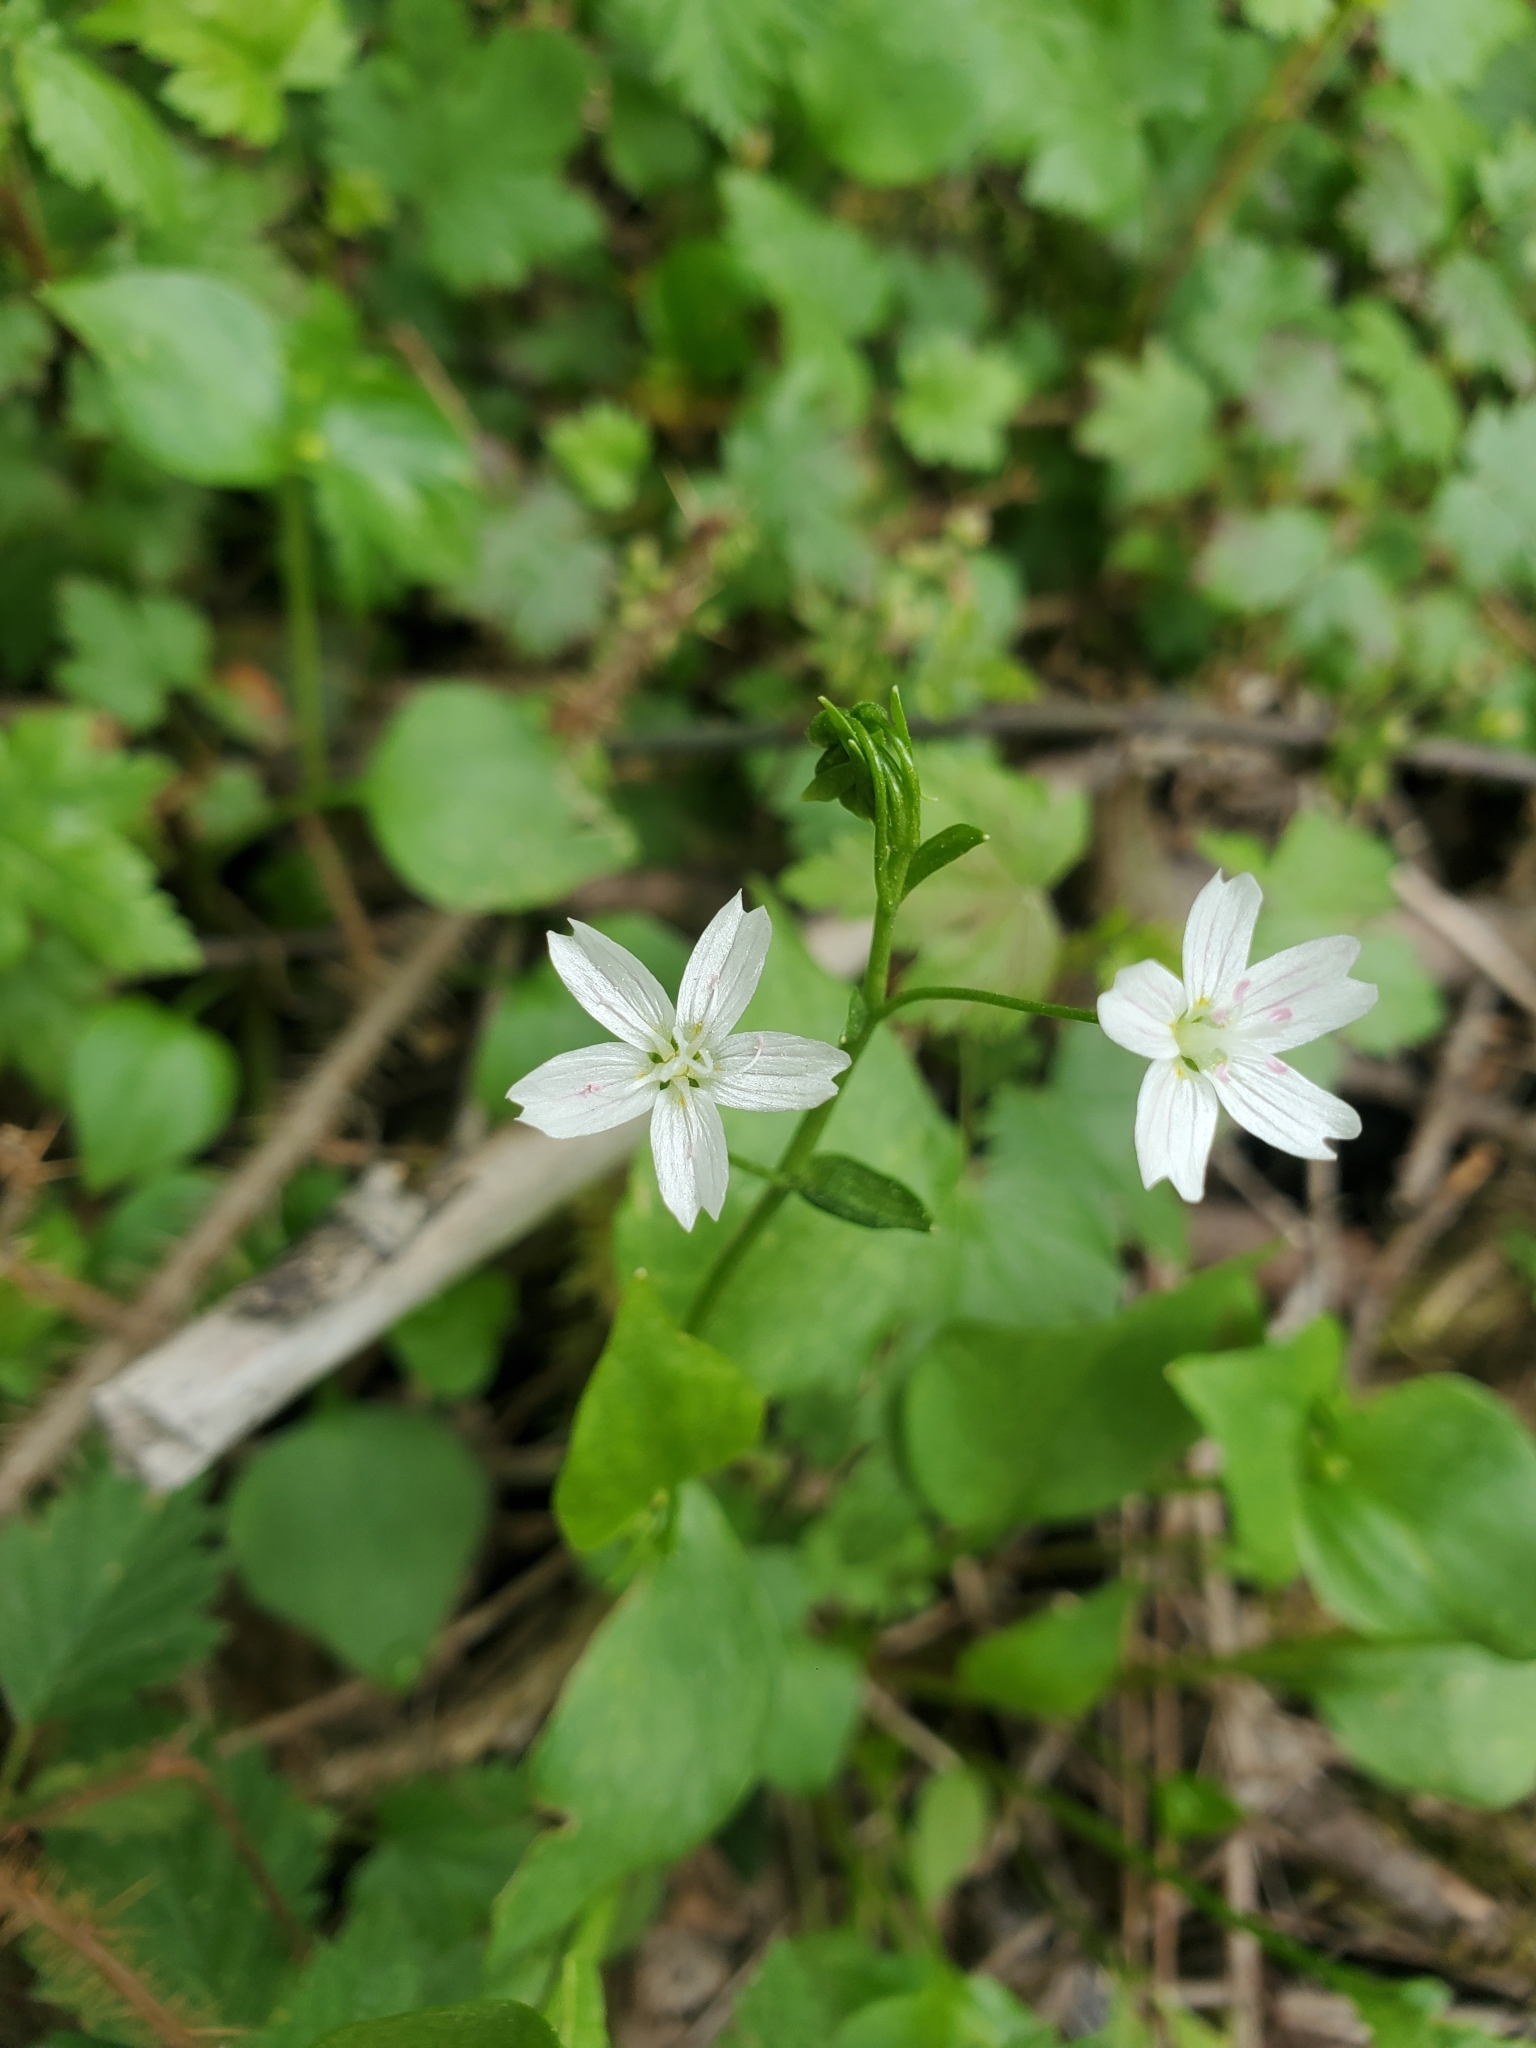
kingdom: Plantae
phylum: Tracheophyta
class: Magnoliopsida
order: Caryophyllales
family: Montiaceae
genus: Claytonia
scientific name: Claytonia sibirica
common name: Pink purslane
